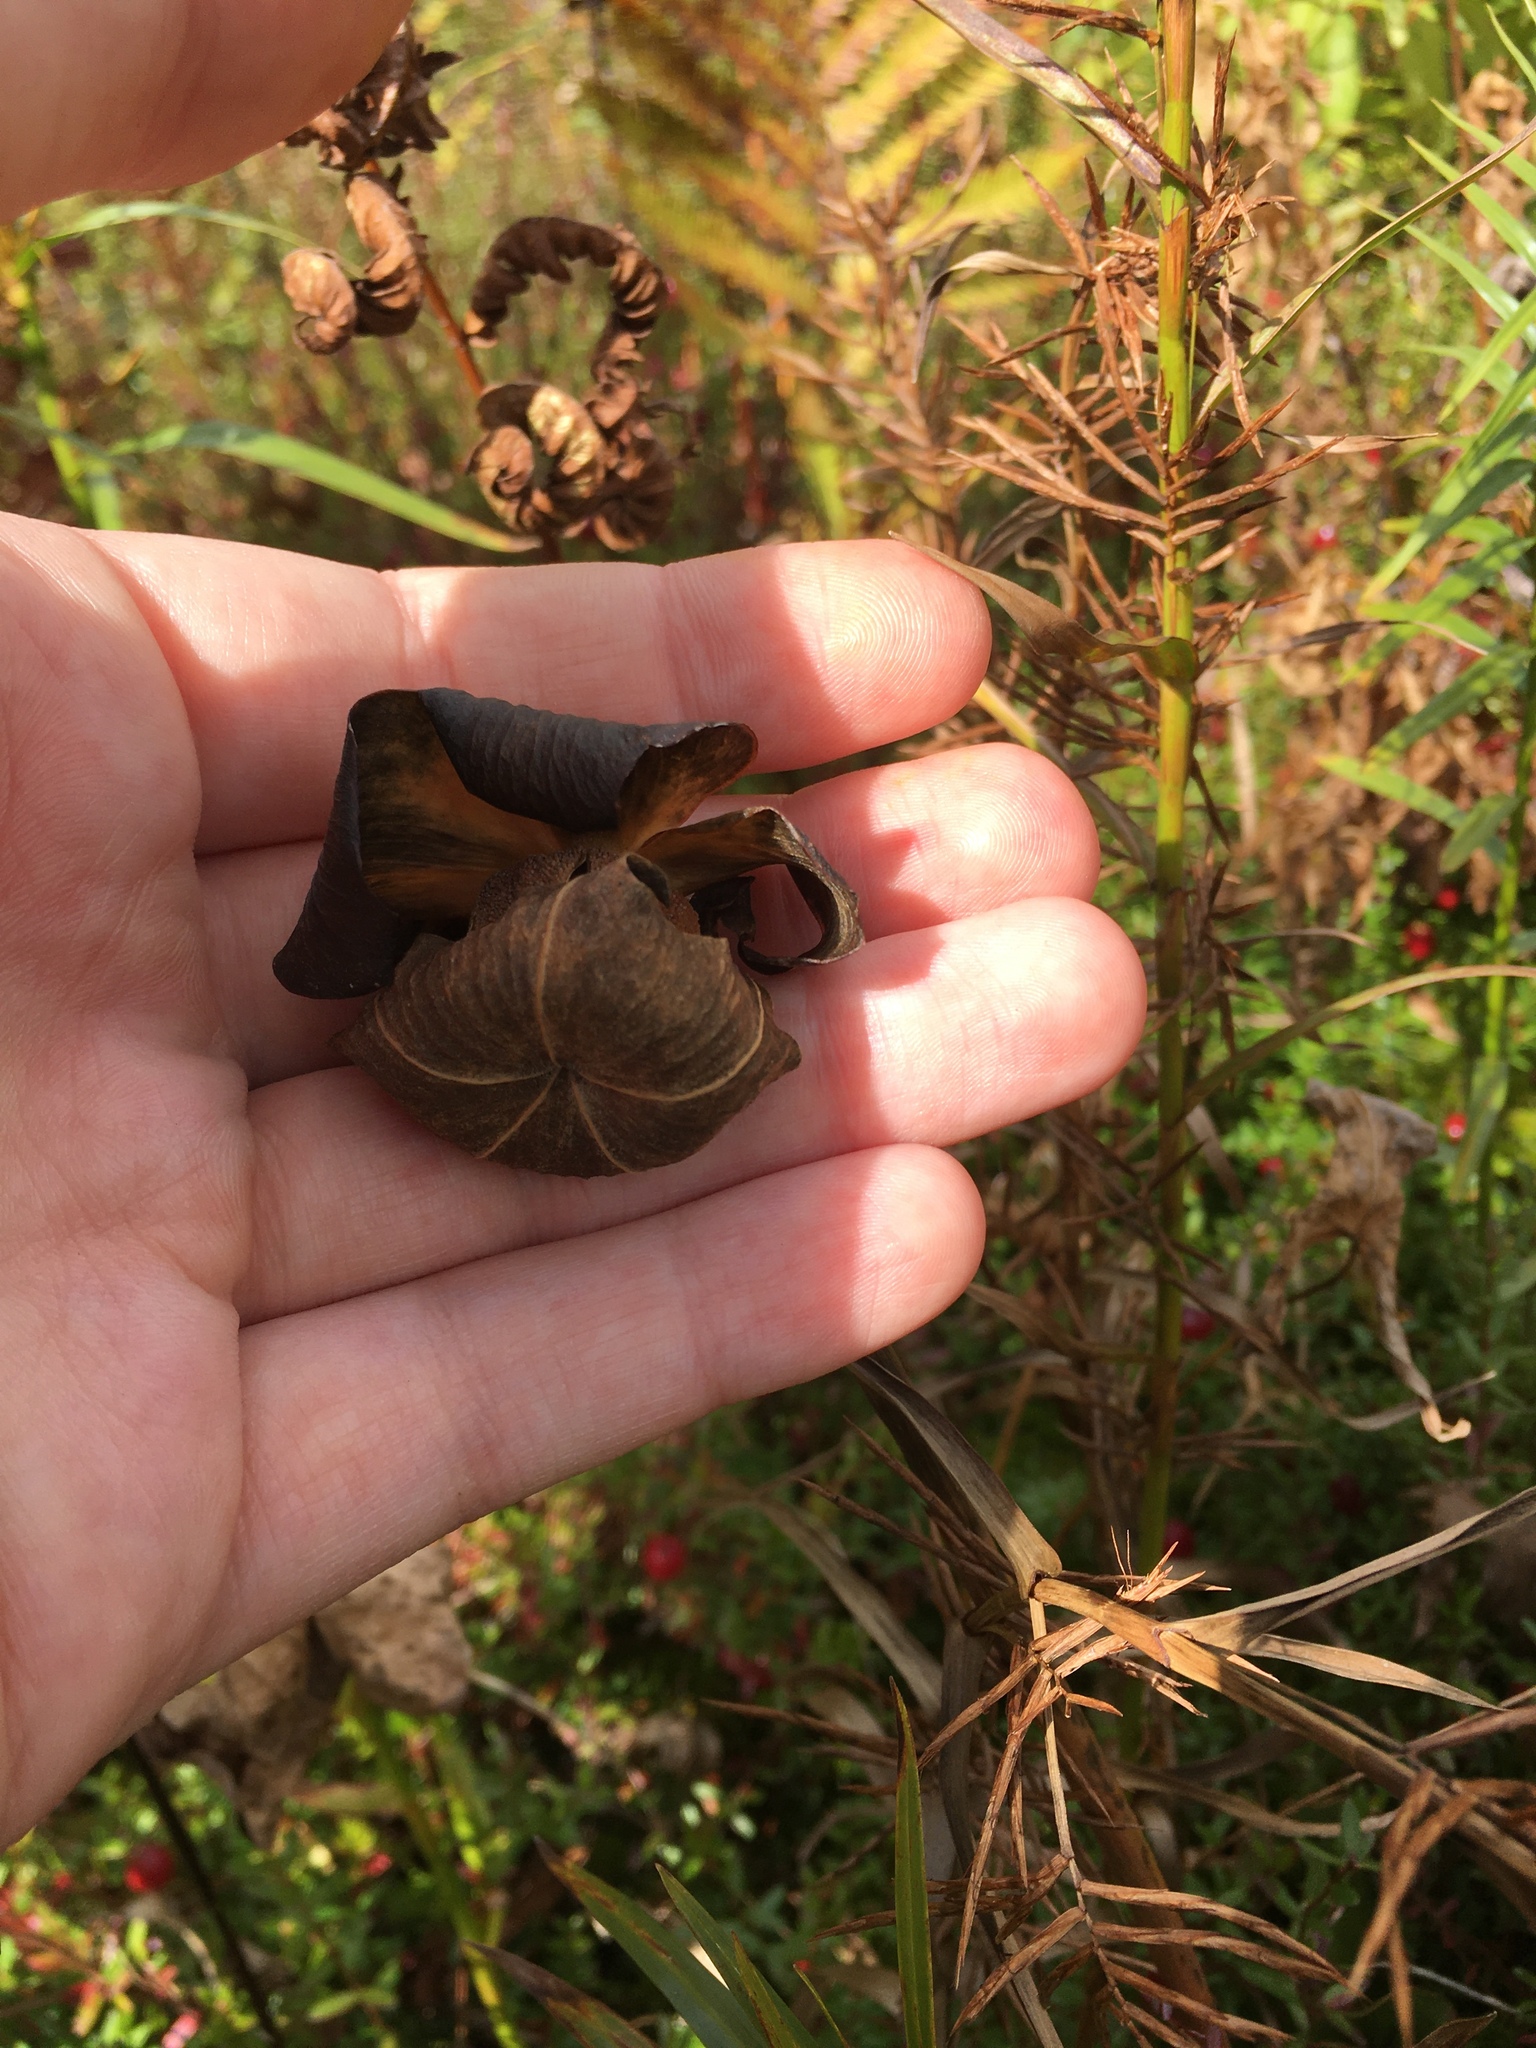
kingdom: Plantae
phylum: Tracheophyta
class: Magnoliopsida
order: Ericales
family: Sarraceniaceae
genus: Sarracenia
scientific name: Sarracenia purpurea
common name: Pitcherplant
